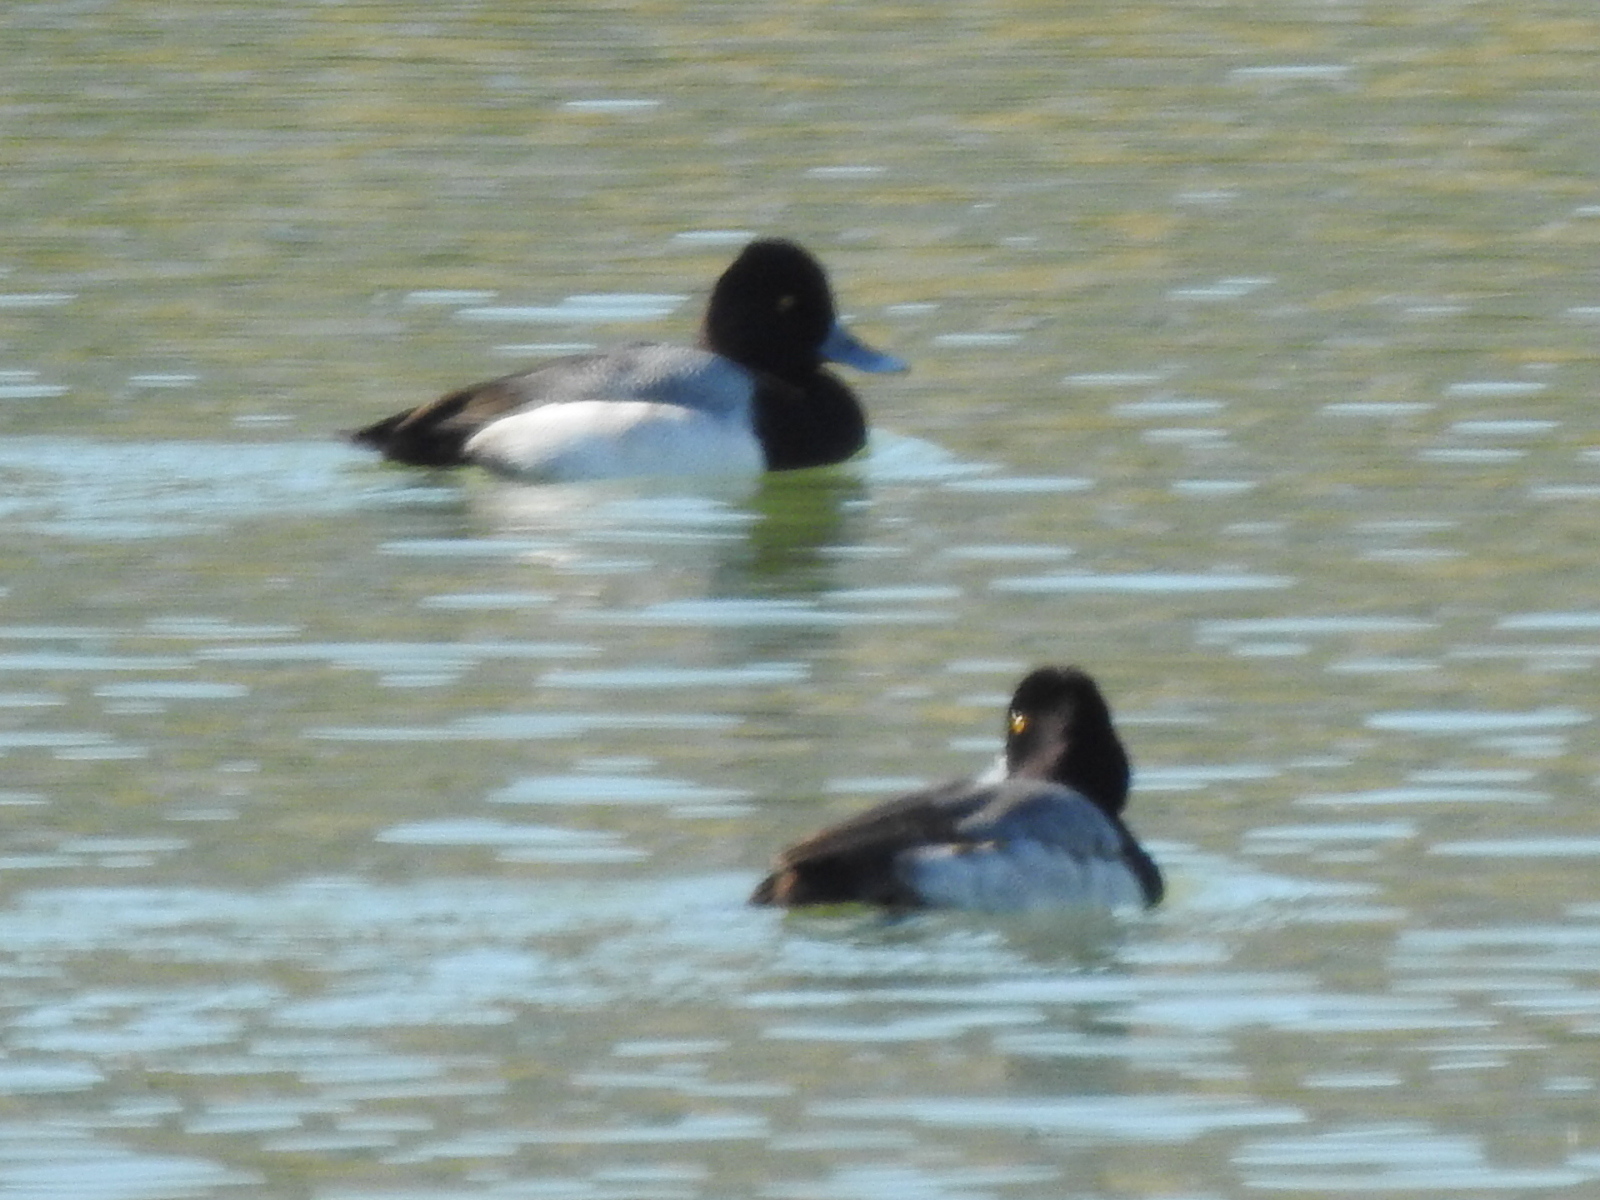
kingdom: Animalia
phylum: Chordata
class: Aves
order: Anseriformes
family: Anatidae
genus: Aythya
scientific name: Aythya affinis
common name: Lesser scaup
